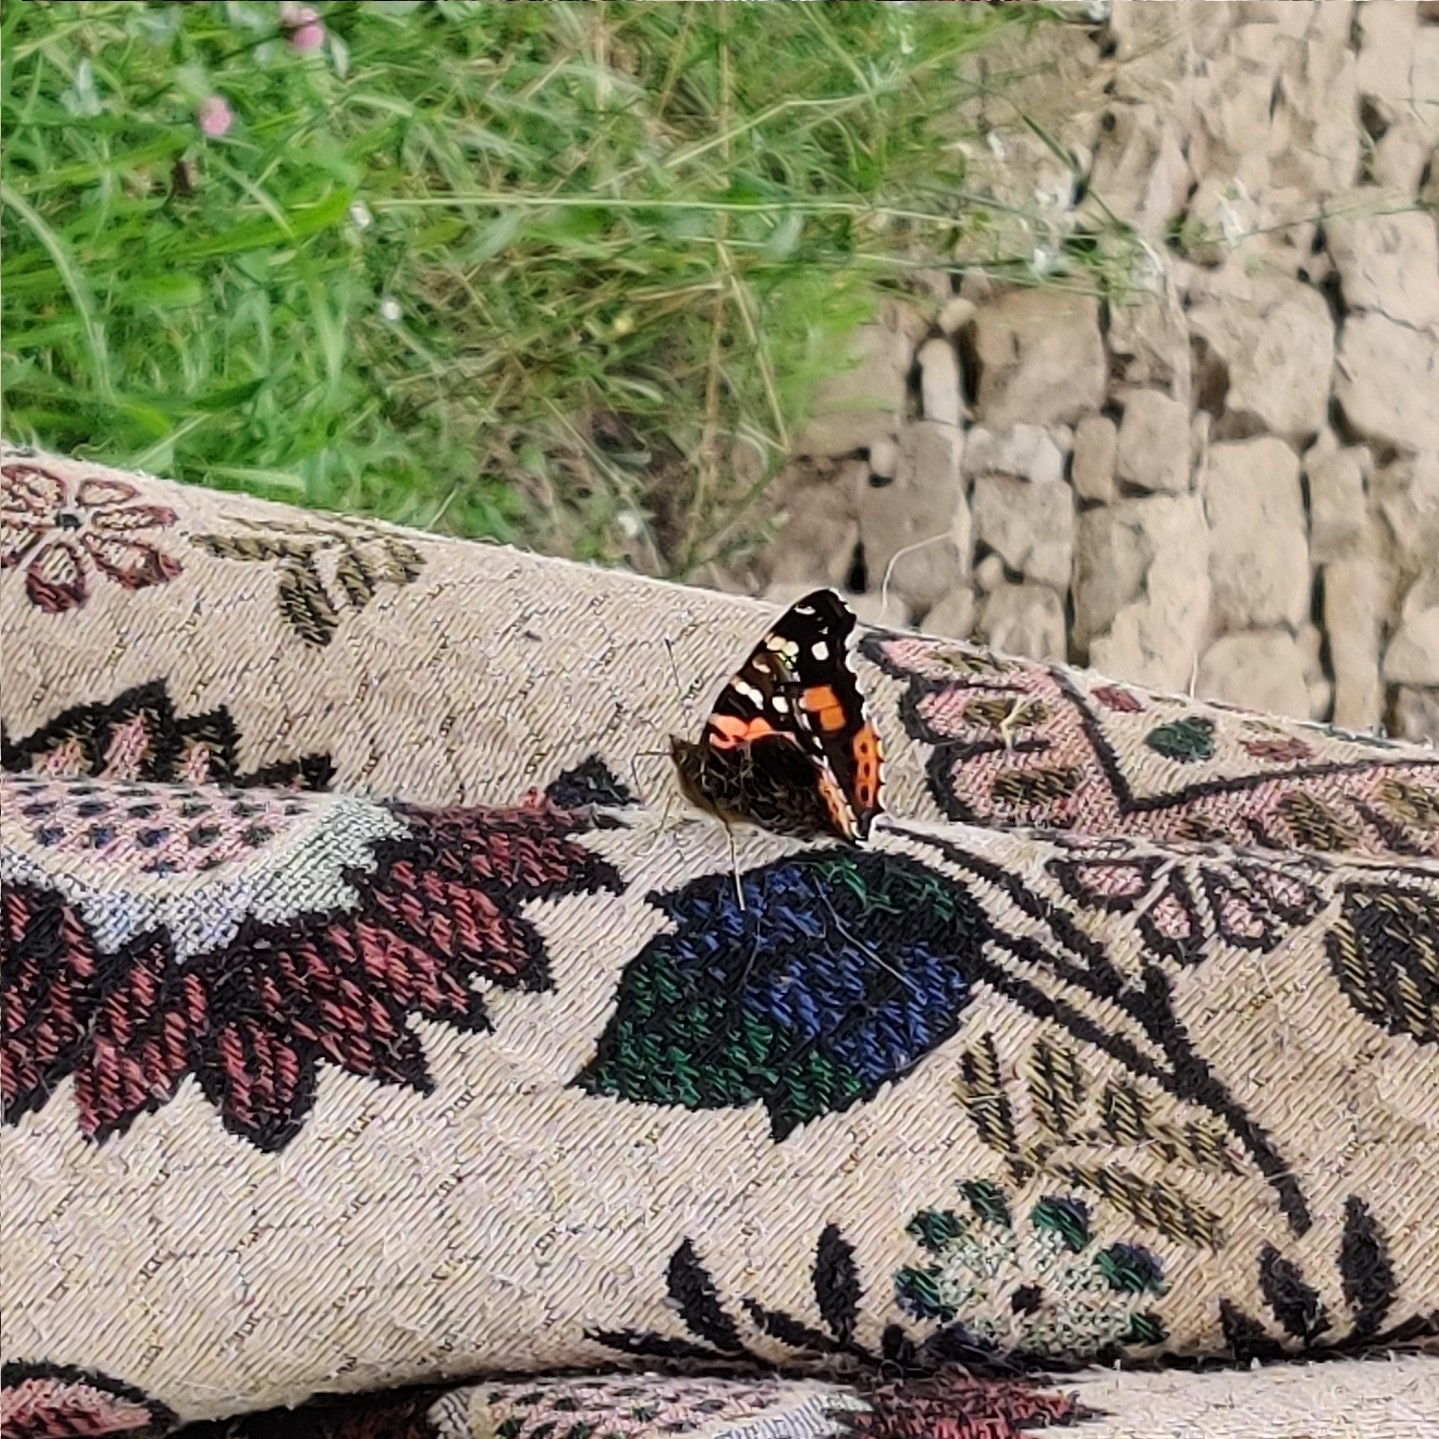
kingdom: Animalia
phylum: Arthropoda
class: Insecta
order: Lepidoptera
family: Nymphalidae
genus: Vanessa
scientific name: Vanessa indica
